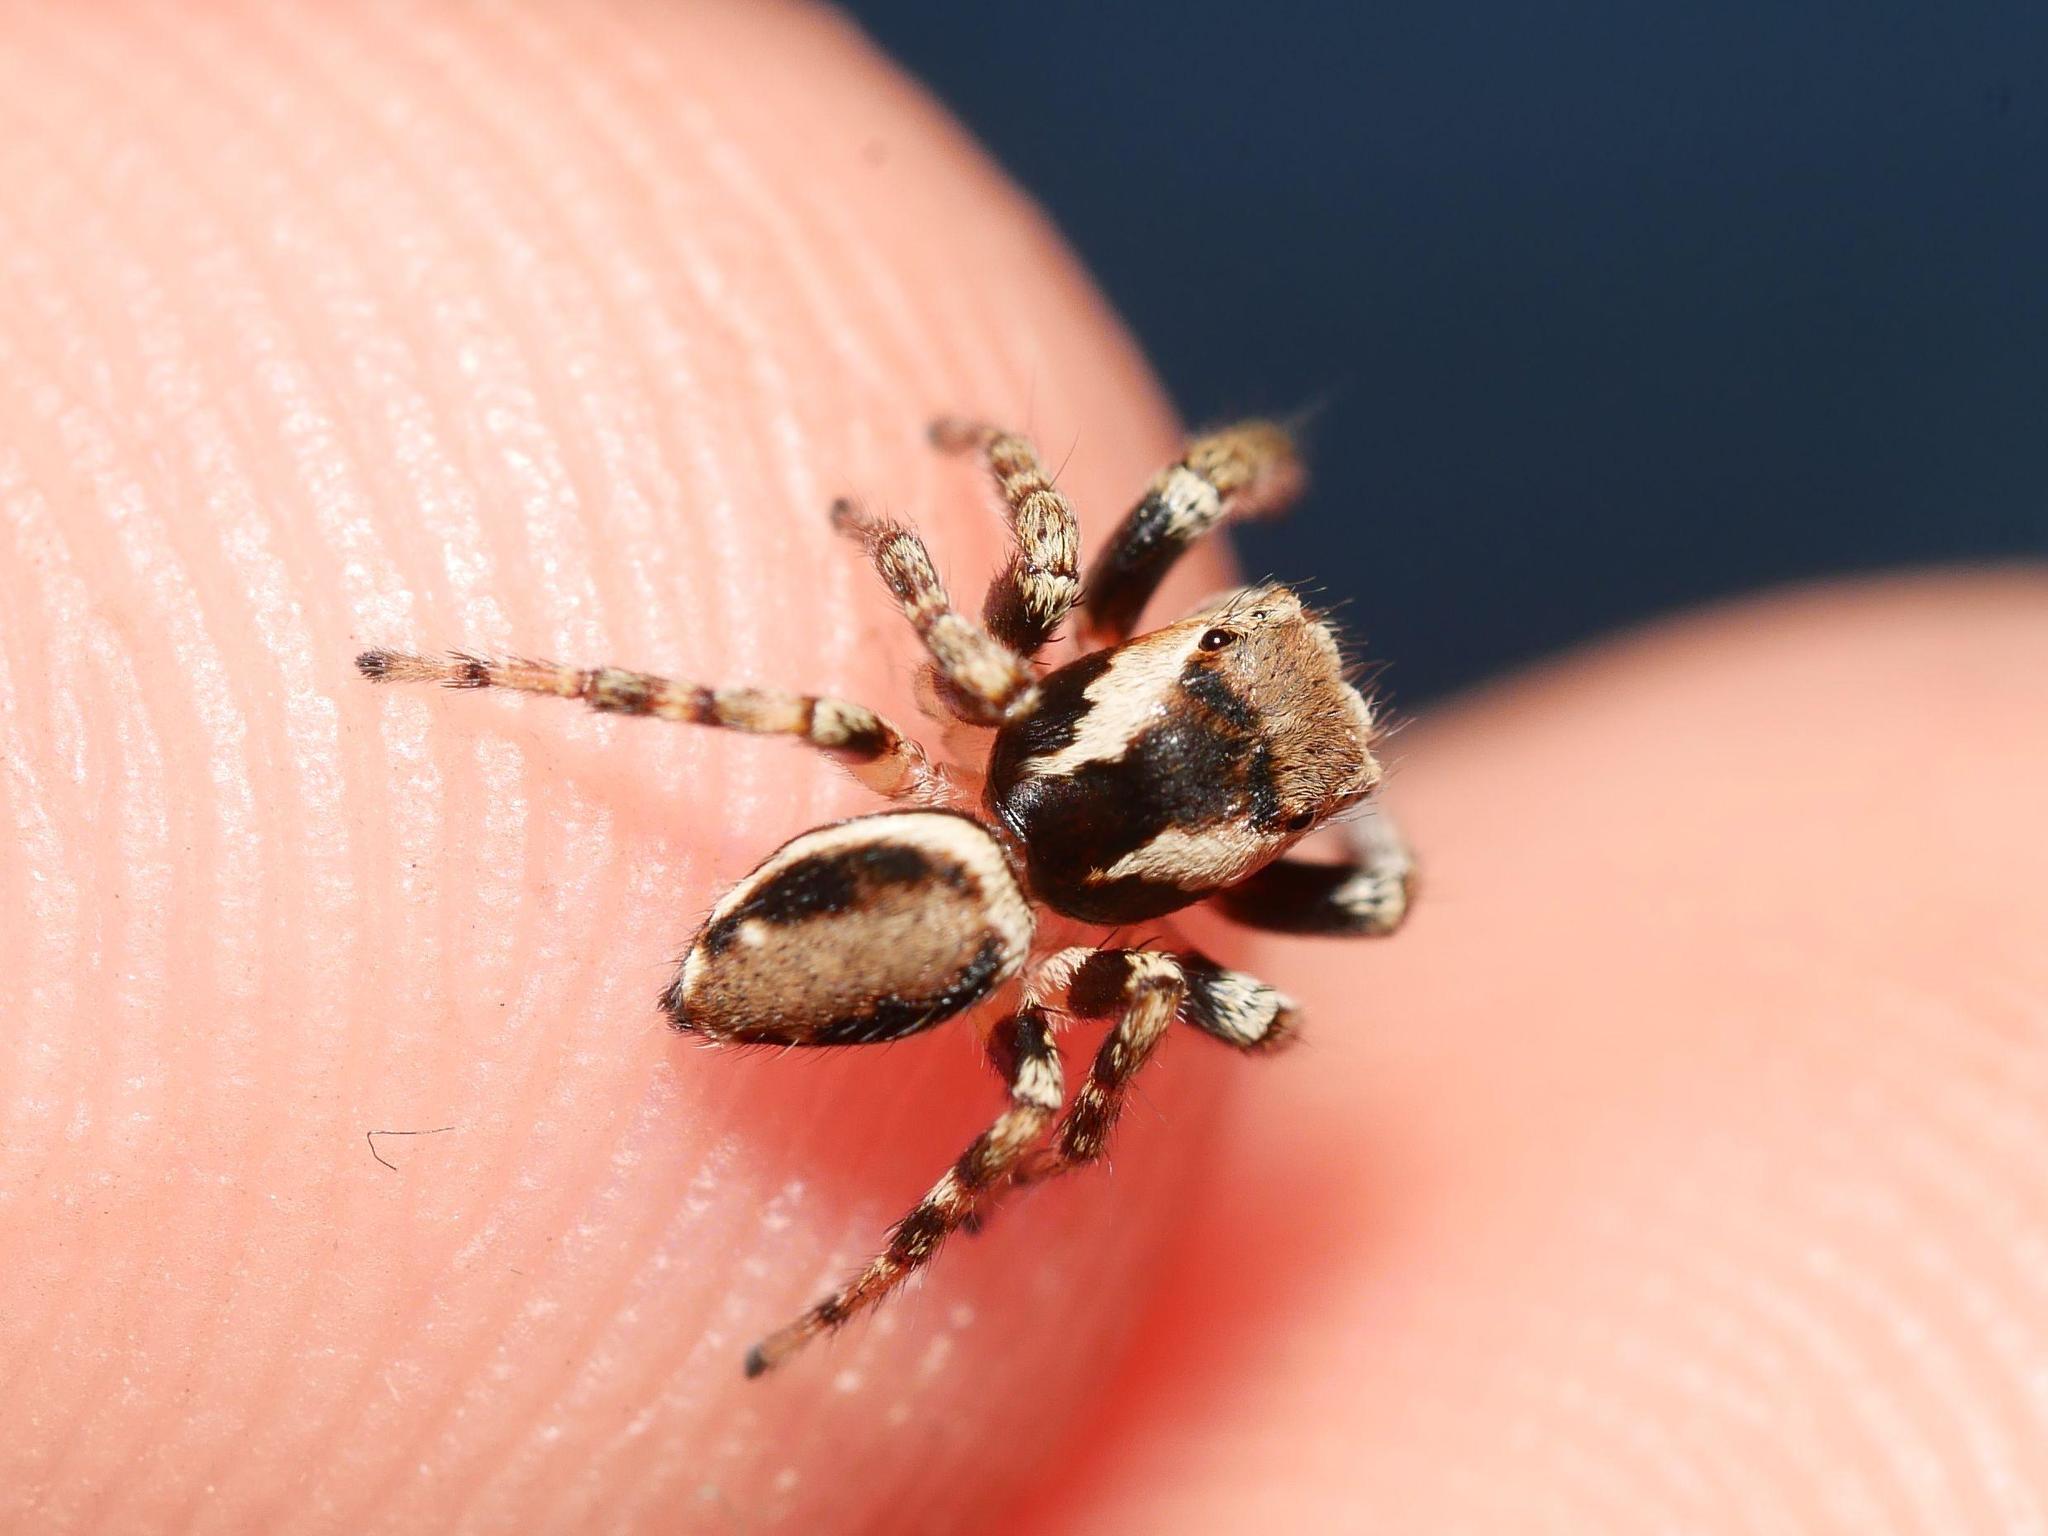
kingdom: Animalia
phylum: Arthropoda
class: Arachnida
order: Araneae
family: Salticidae
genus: Evarcha
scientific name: Evarcha falcata
